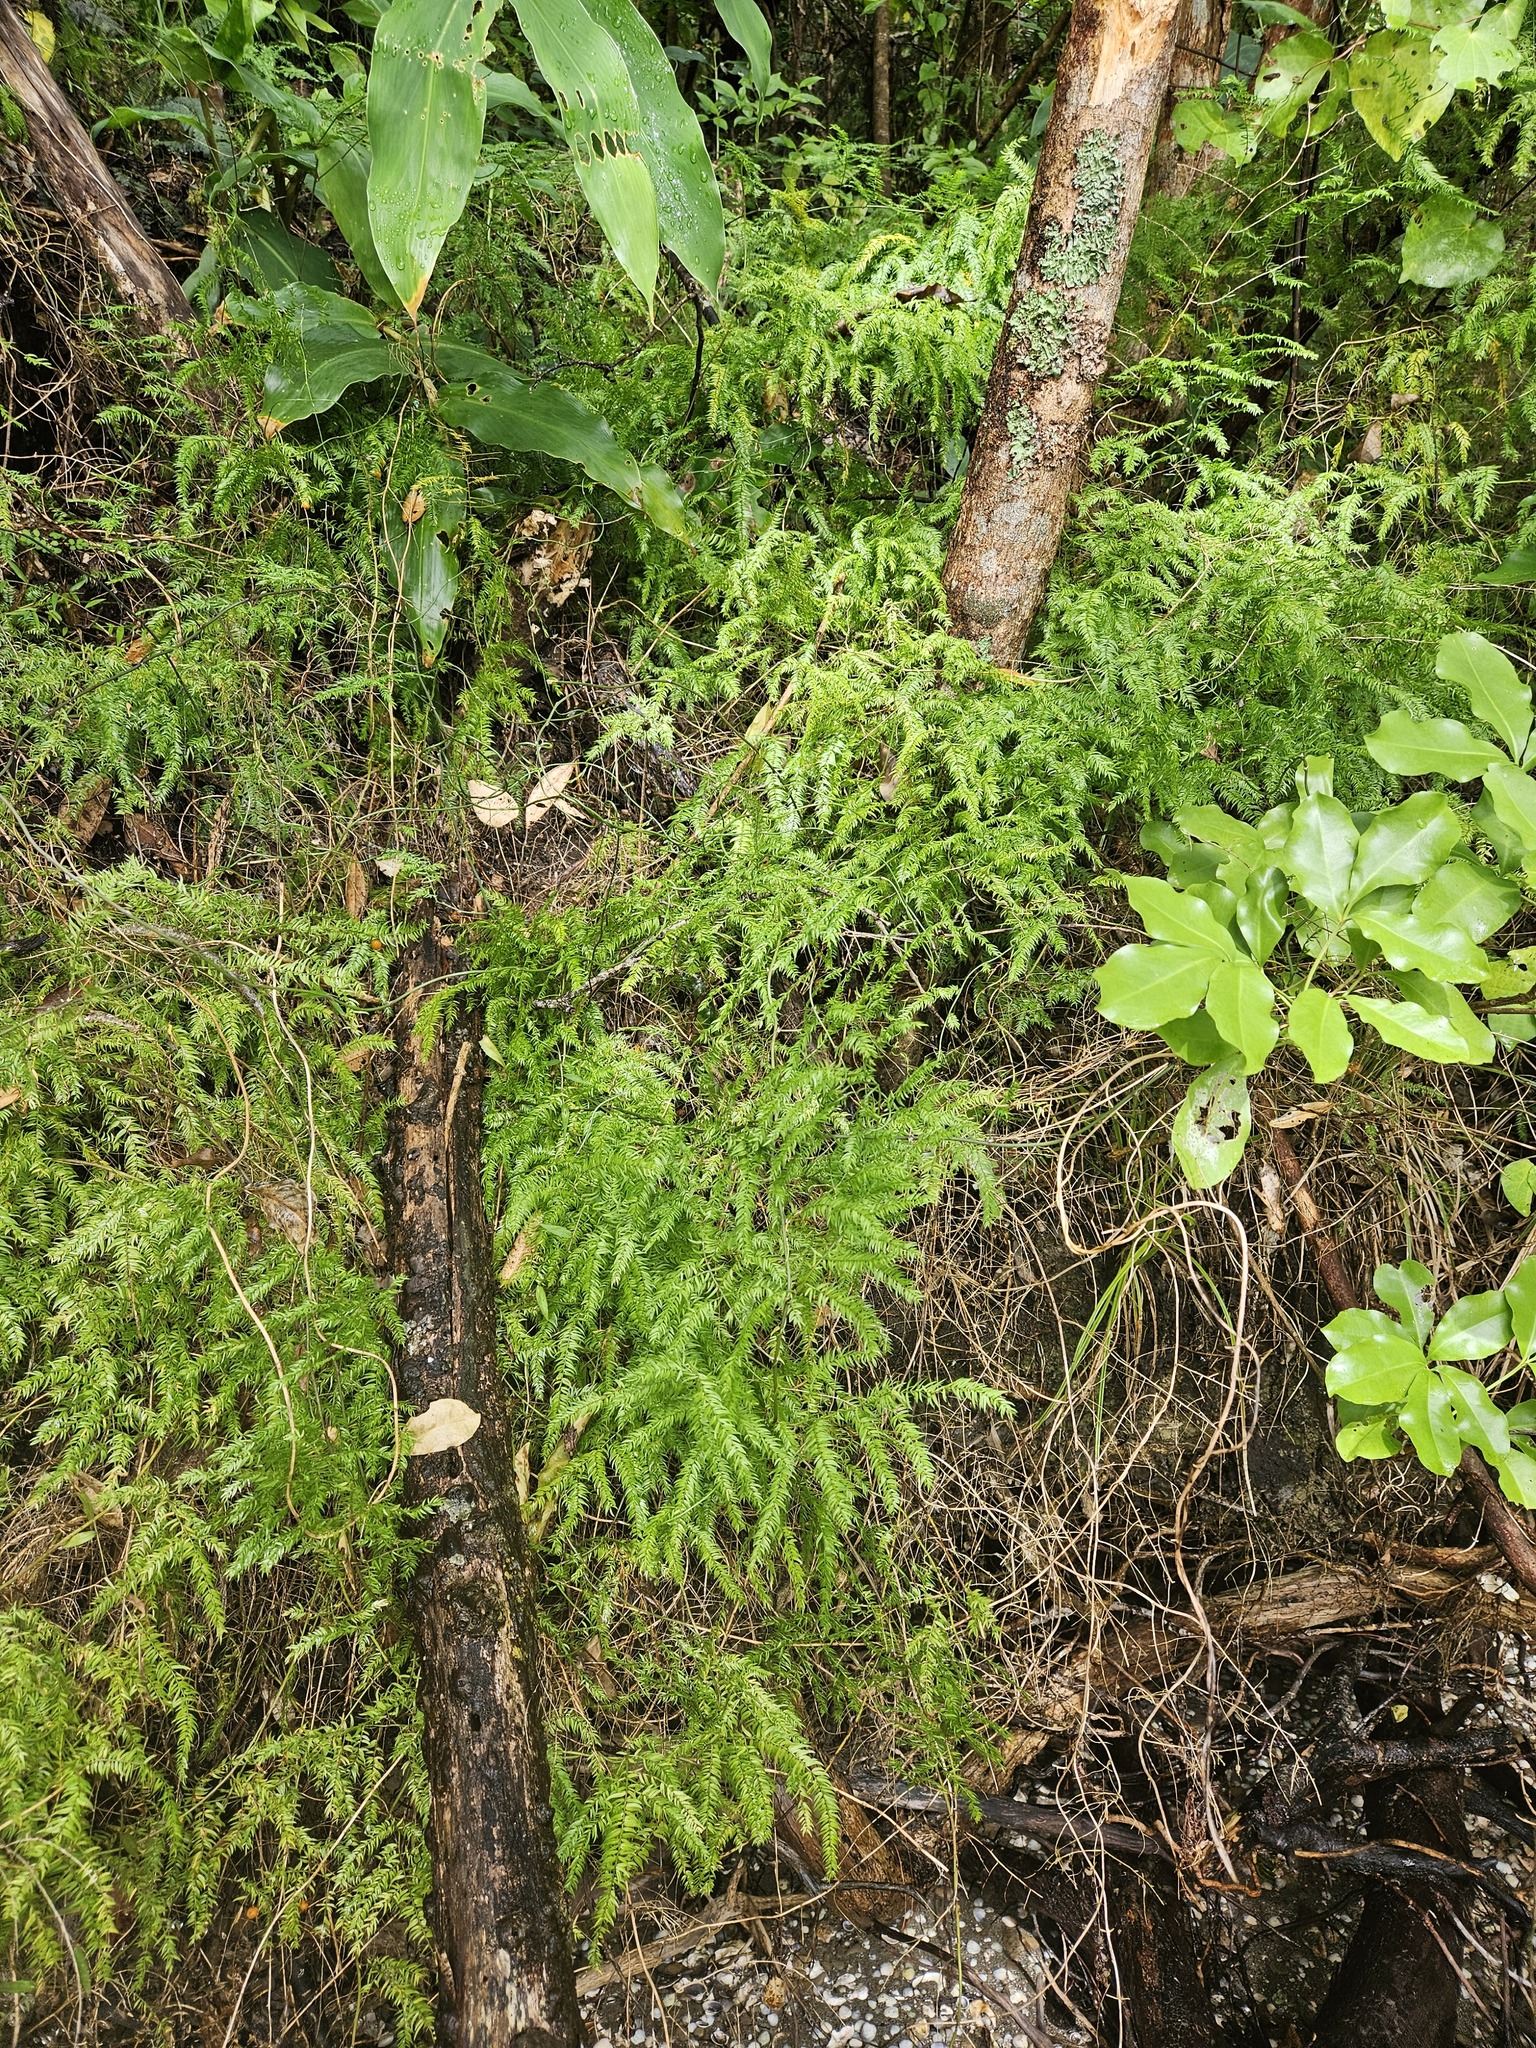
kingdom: Plantae
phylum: Tracheophyta
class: Liliopsida
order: Asparagales
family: Asparagaceae
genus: Asparagus
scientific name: Asparagus scandens
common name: Asparagus-fern
